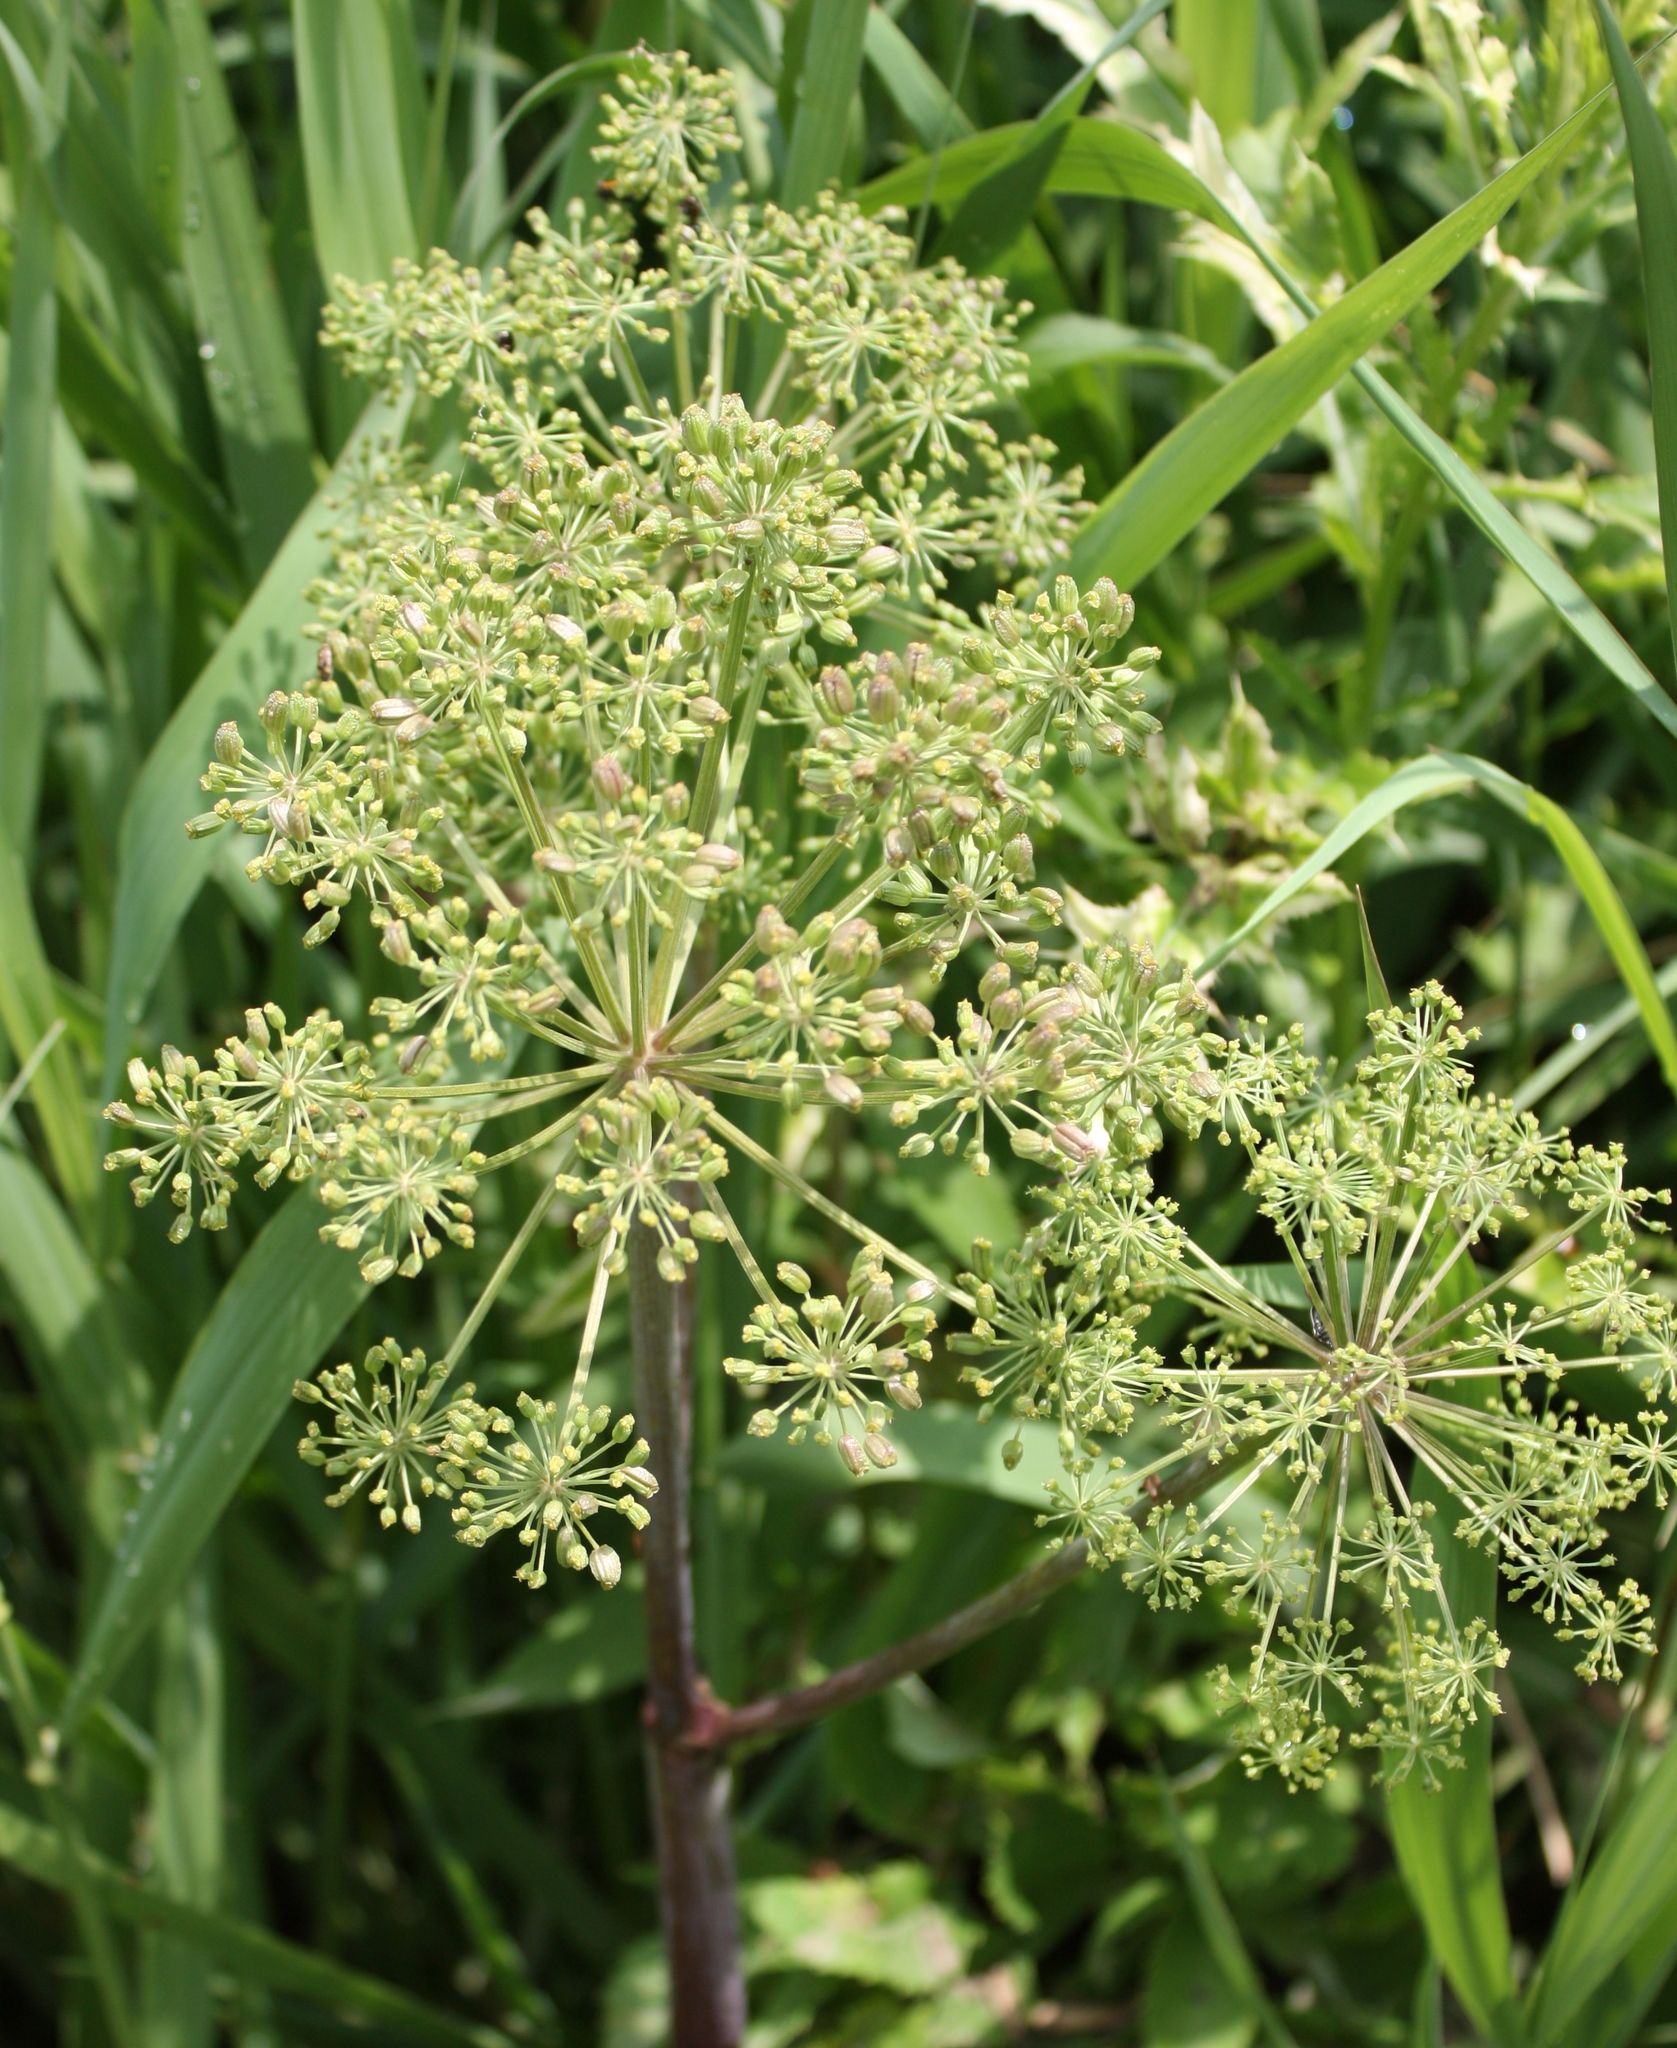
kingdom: Plantae
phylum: Tracheophyta
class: Magnoliopsida
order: Apiales
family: Apiaceae
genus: Angelica
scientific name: Angelica atropurpurea
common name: Great angelica
